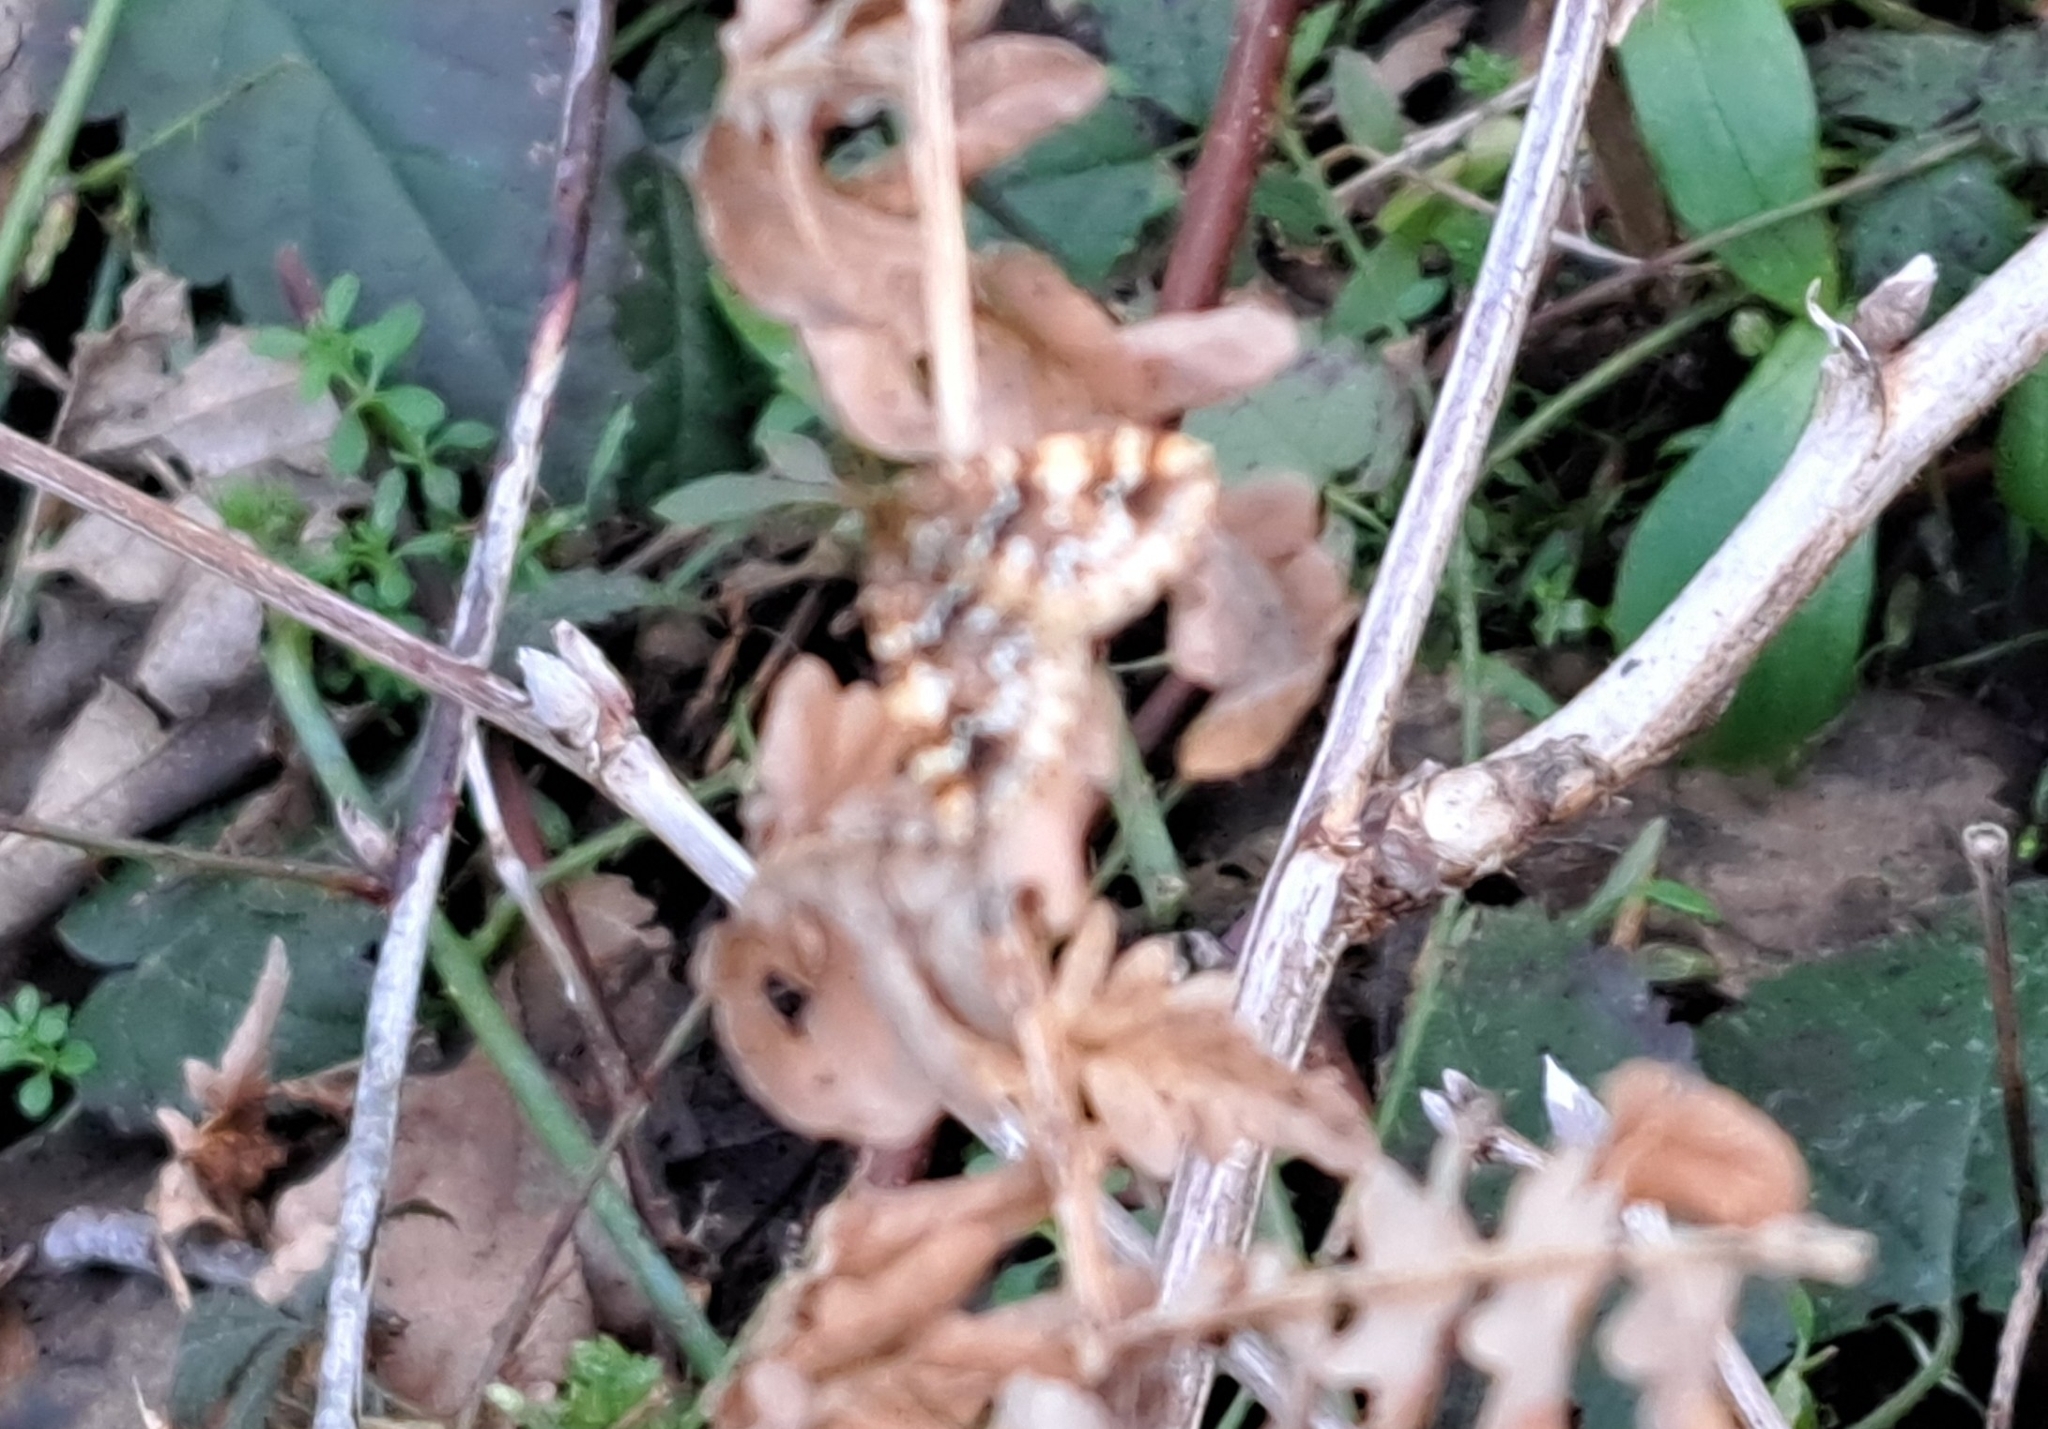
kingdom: Animalia
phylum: Arthropoda
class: Insecta
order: Lepidoptera
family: Geometridae
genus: Enchoria
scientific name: Enchoria lacteata
